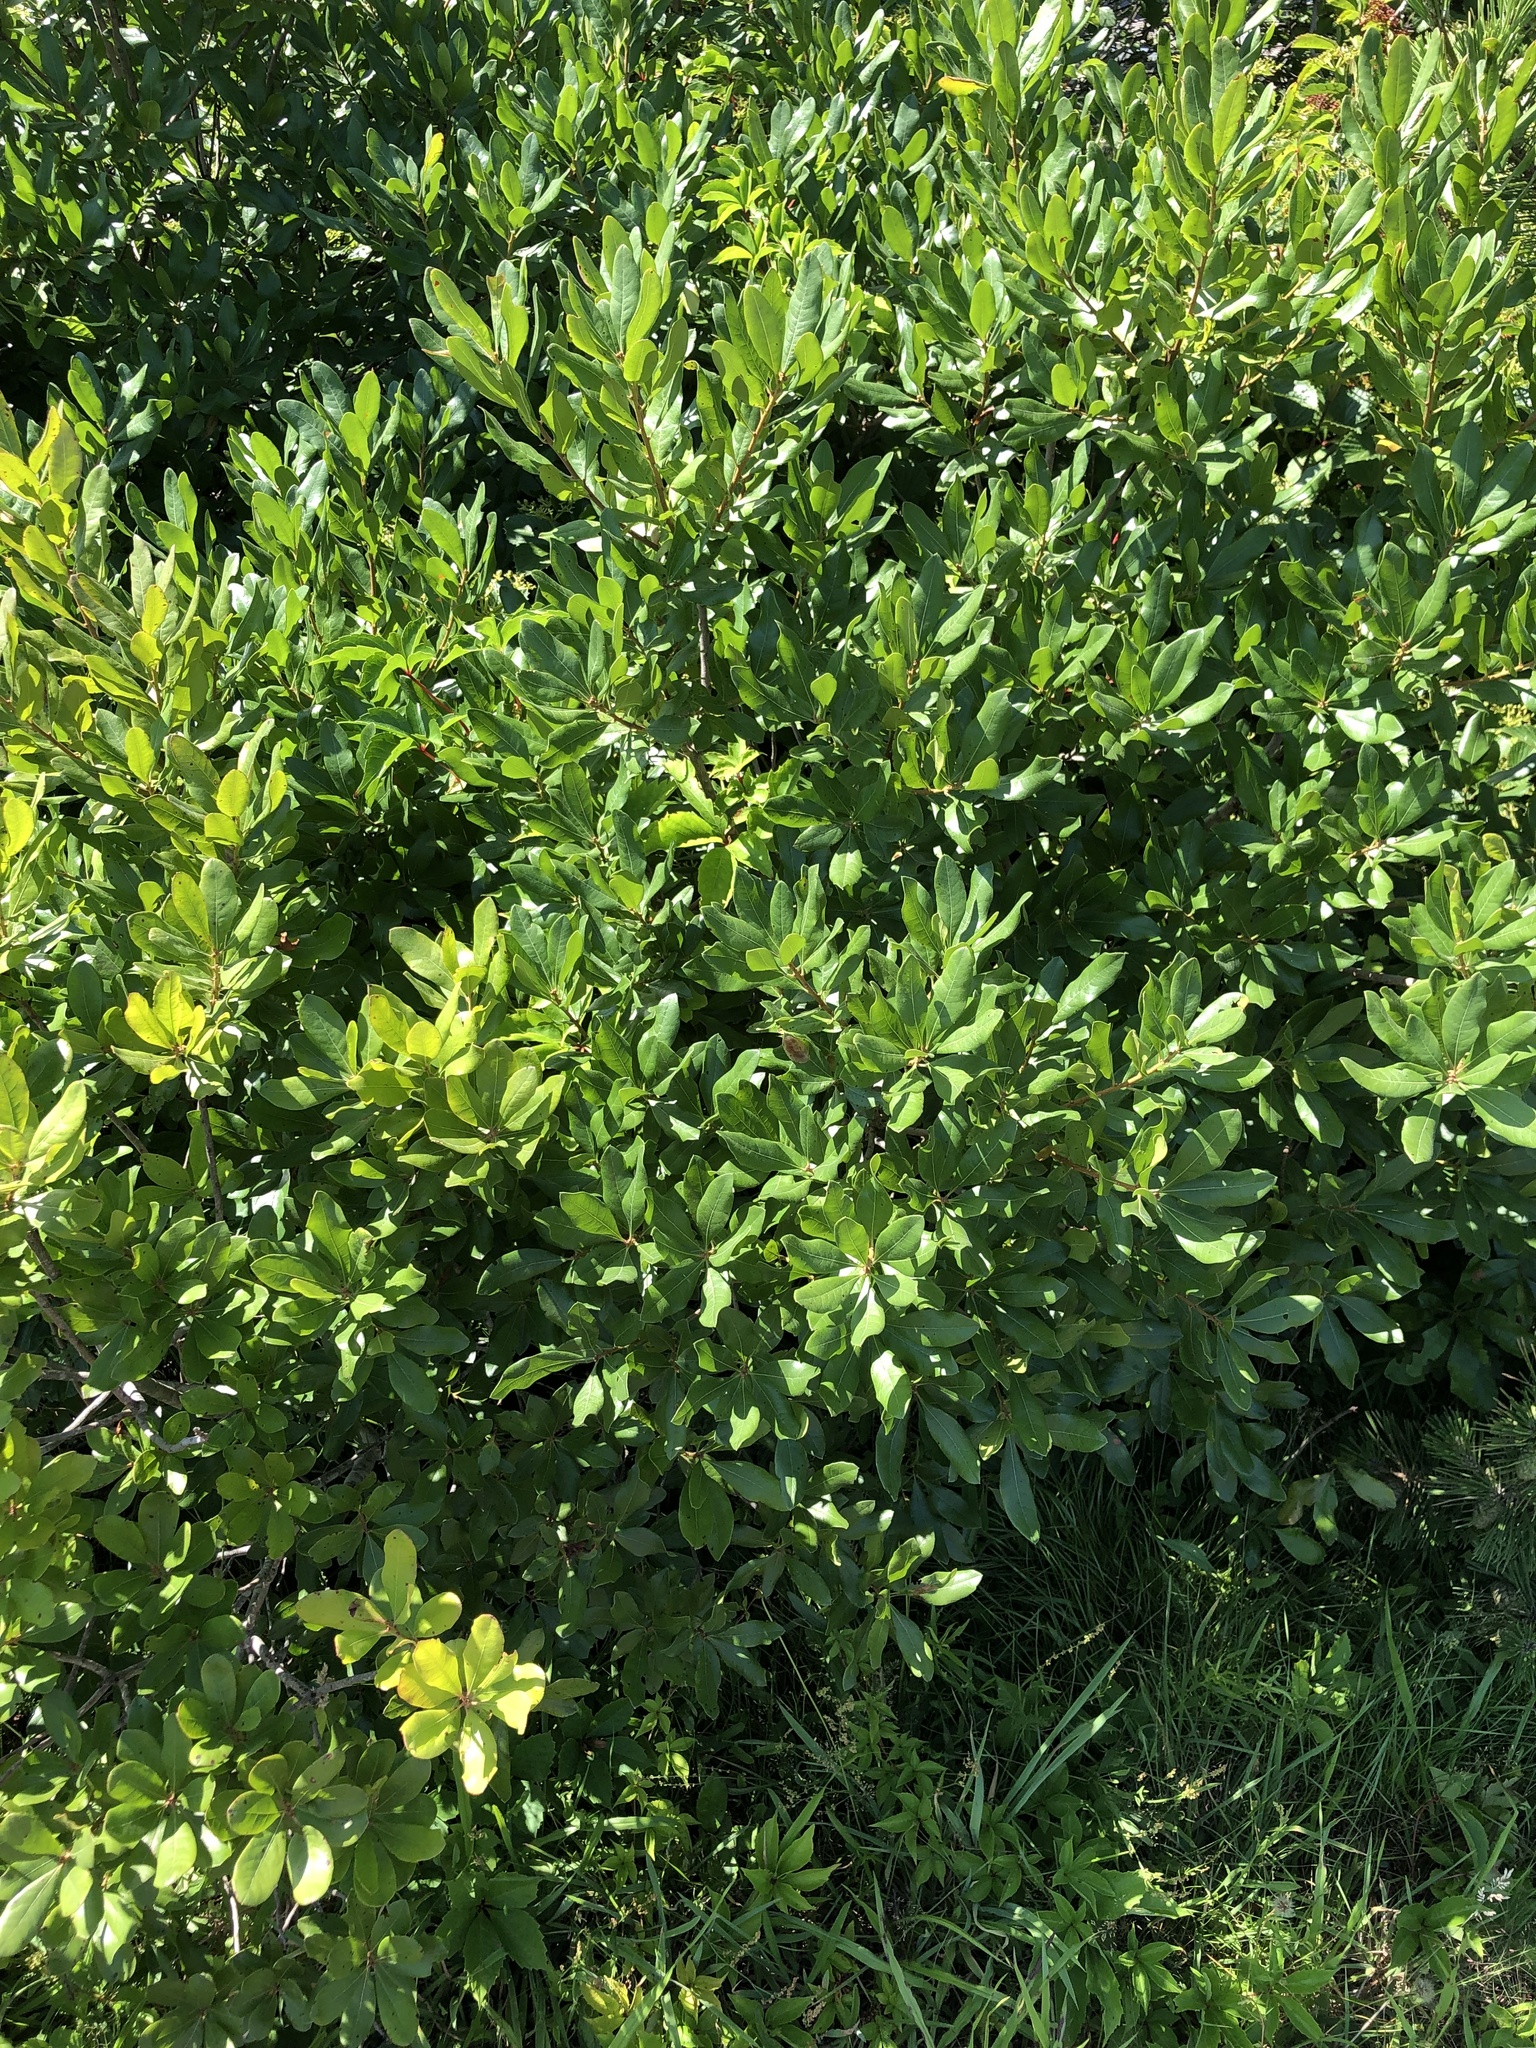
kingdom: Plantae
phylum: Tracheophyta
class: Magnoliopsida
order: Fagales
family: Myricaceae
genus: Morella
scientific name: Morella pensylvanica
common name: Northern bayberry
